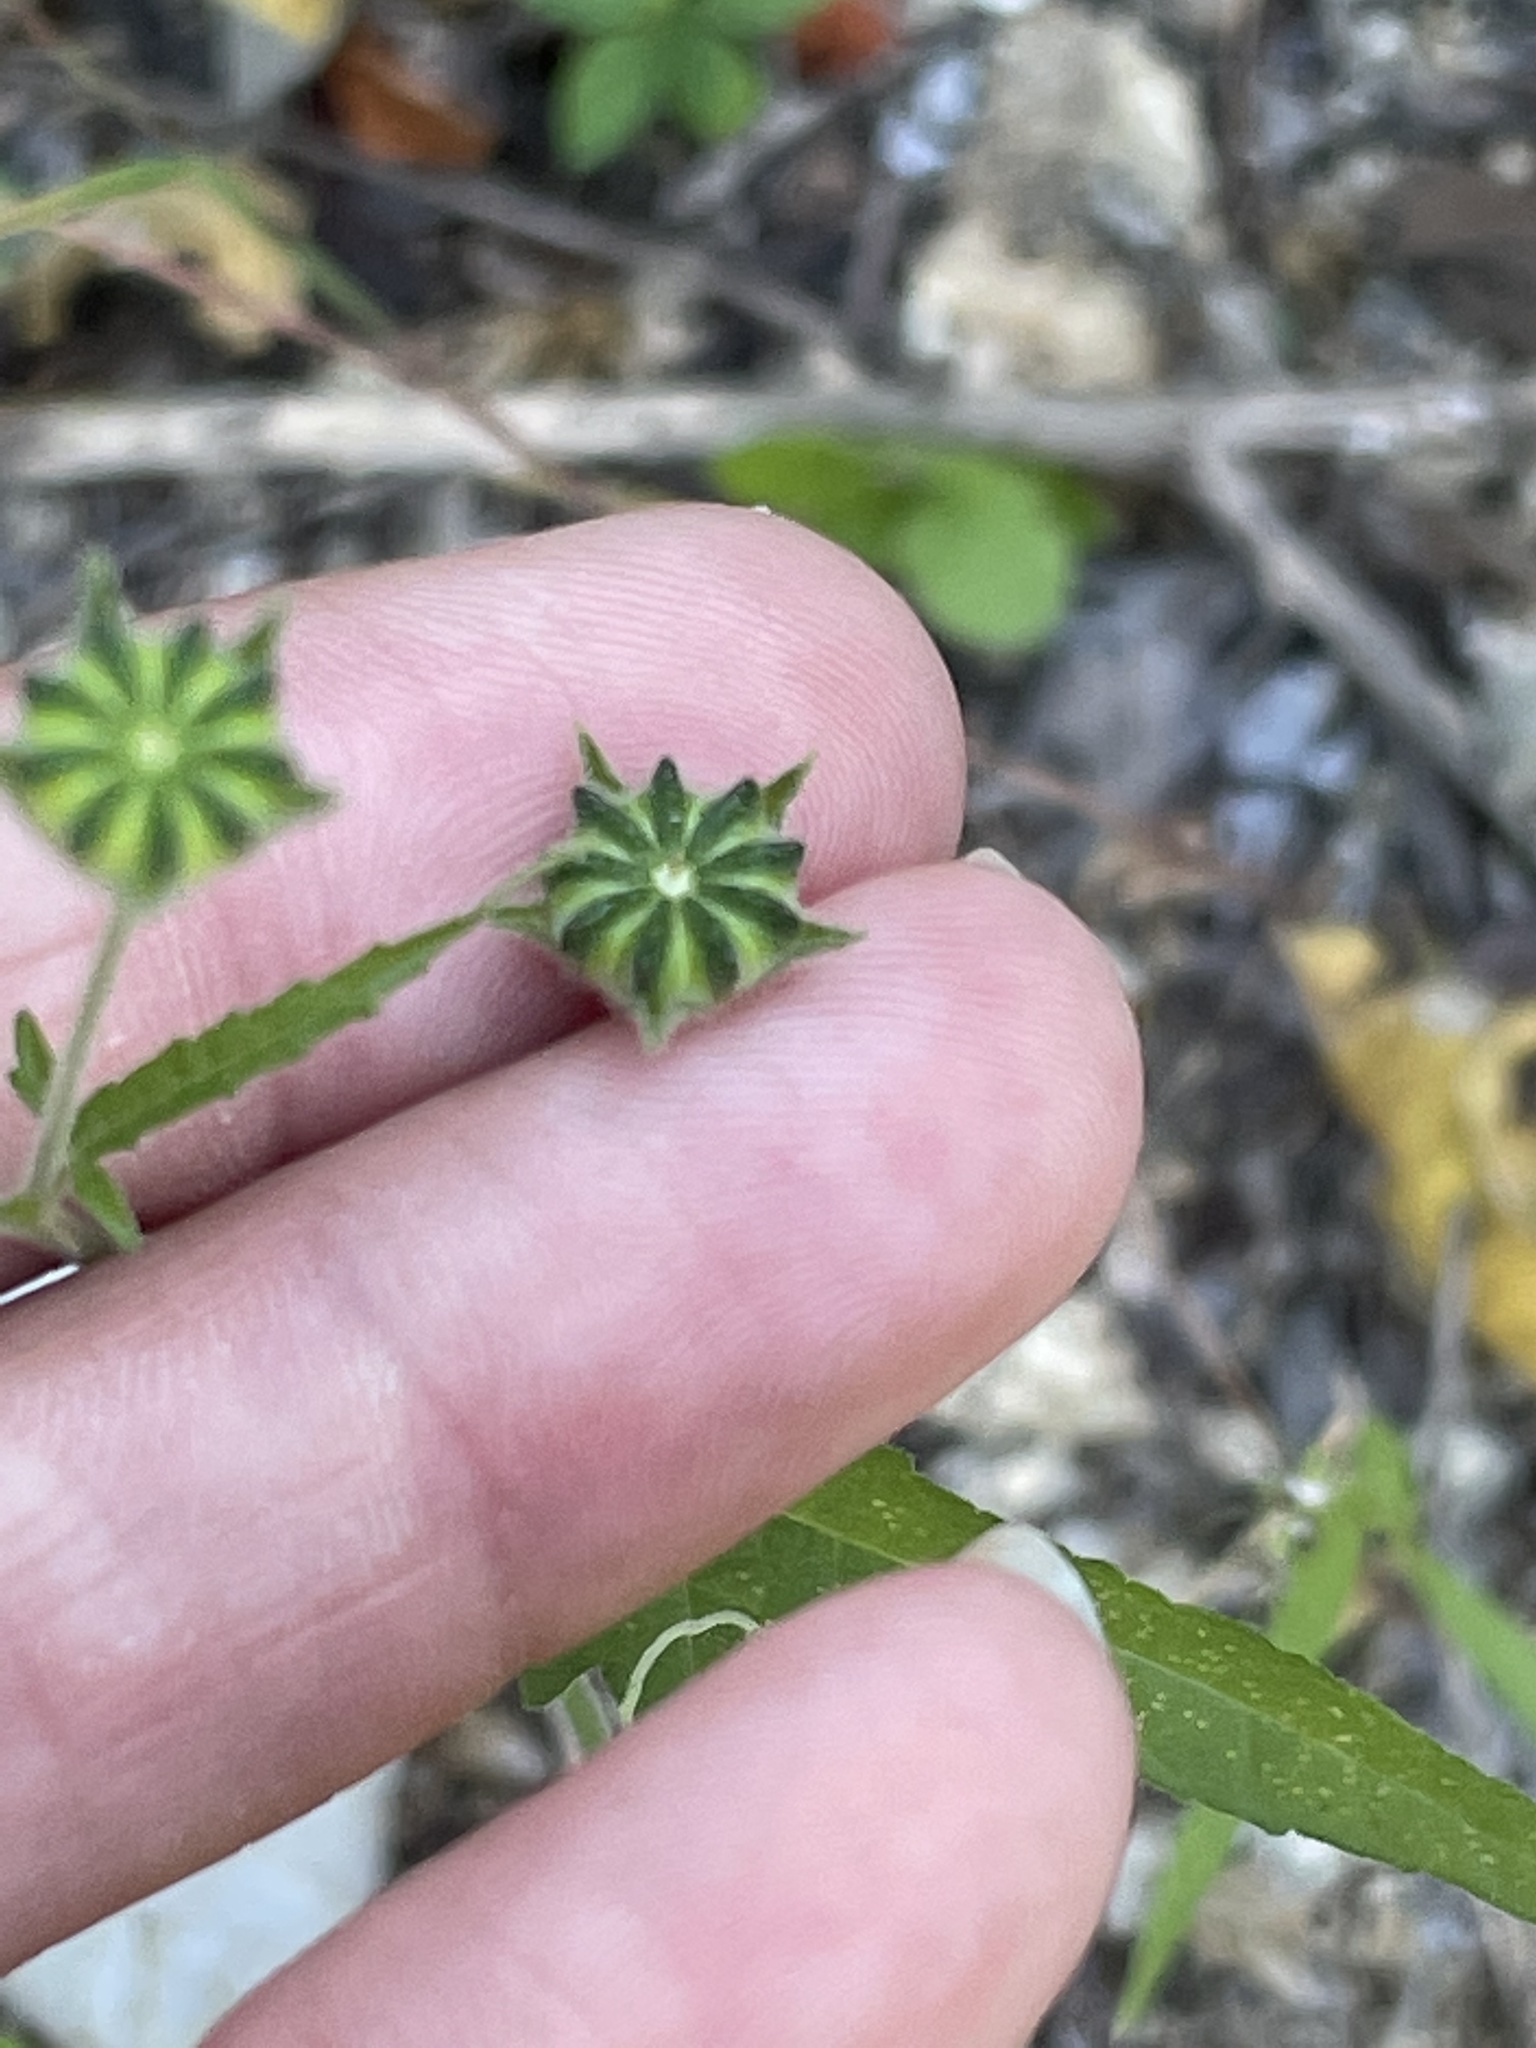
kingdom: Plantae
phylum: Tracheophyta
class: Magnoliopsida
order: Malvales
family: Malvaceae
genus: Anoda
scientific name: Anoda palmata
